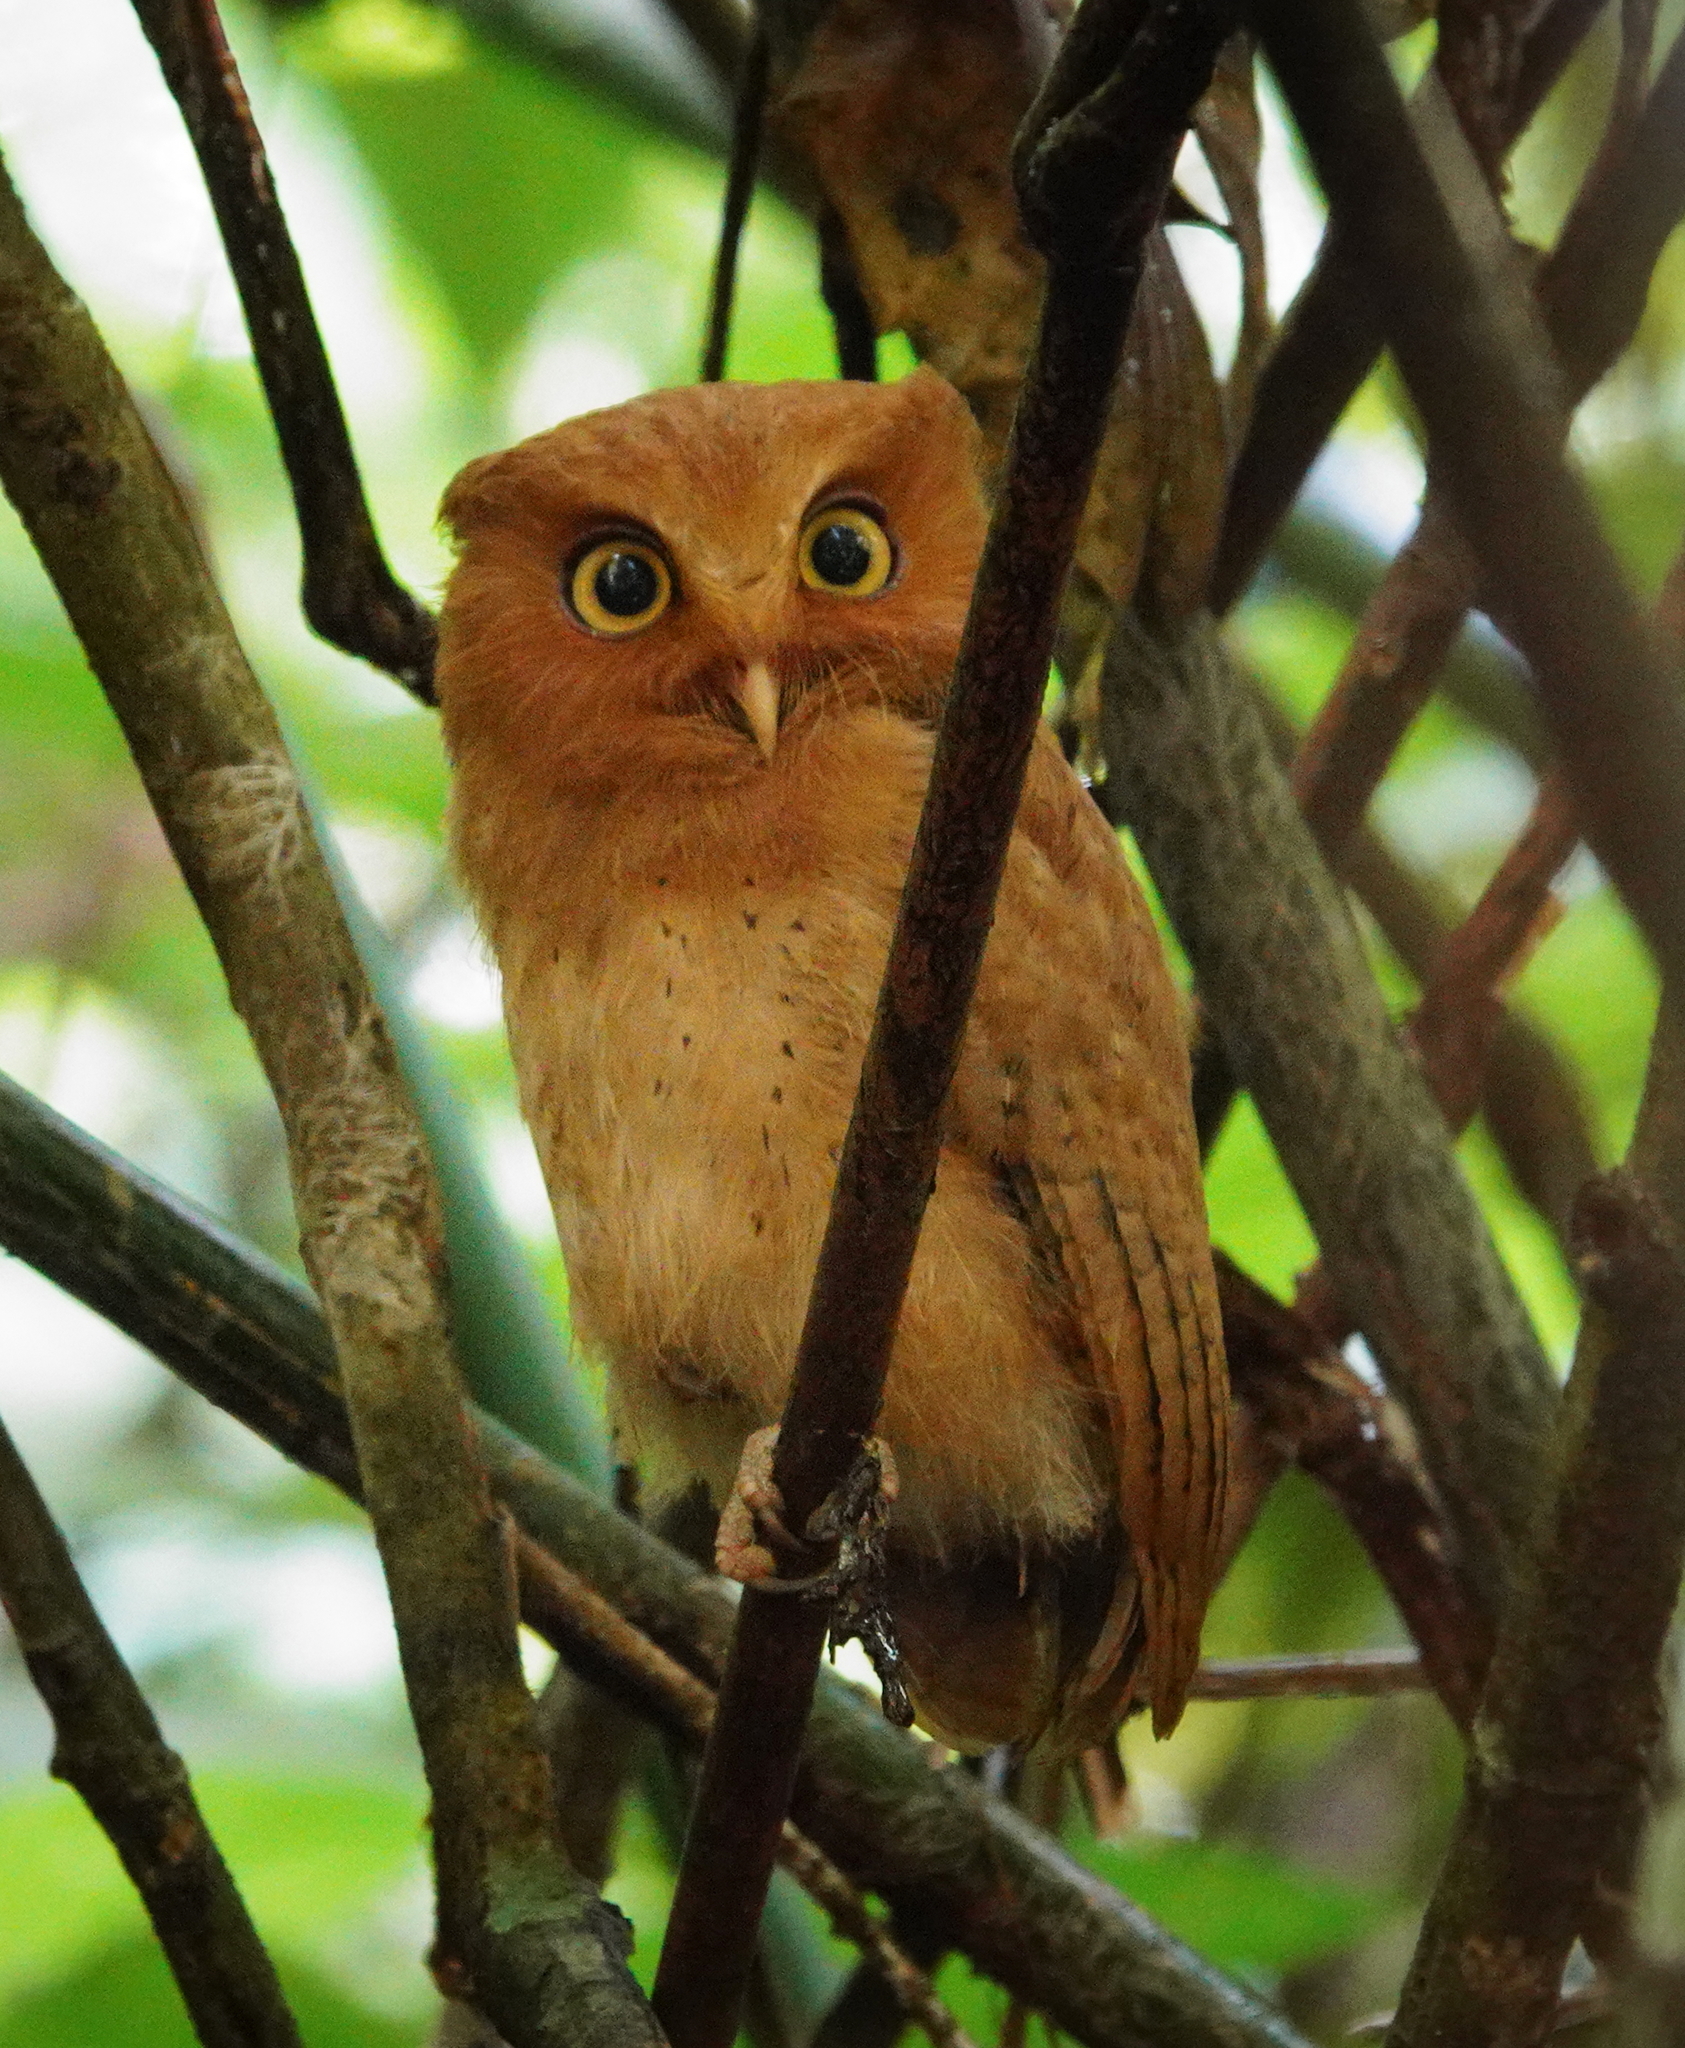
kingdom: Animalia
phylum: Chordata
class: Aves
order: Strigiformes
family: Strigidae
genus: Otus
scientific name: Otus thilohoffmanni
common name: Serendib scops owl
